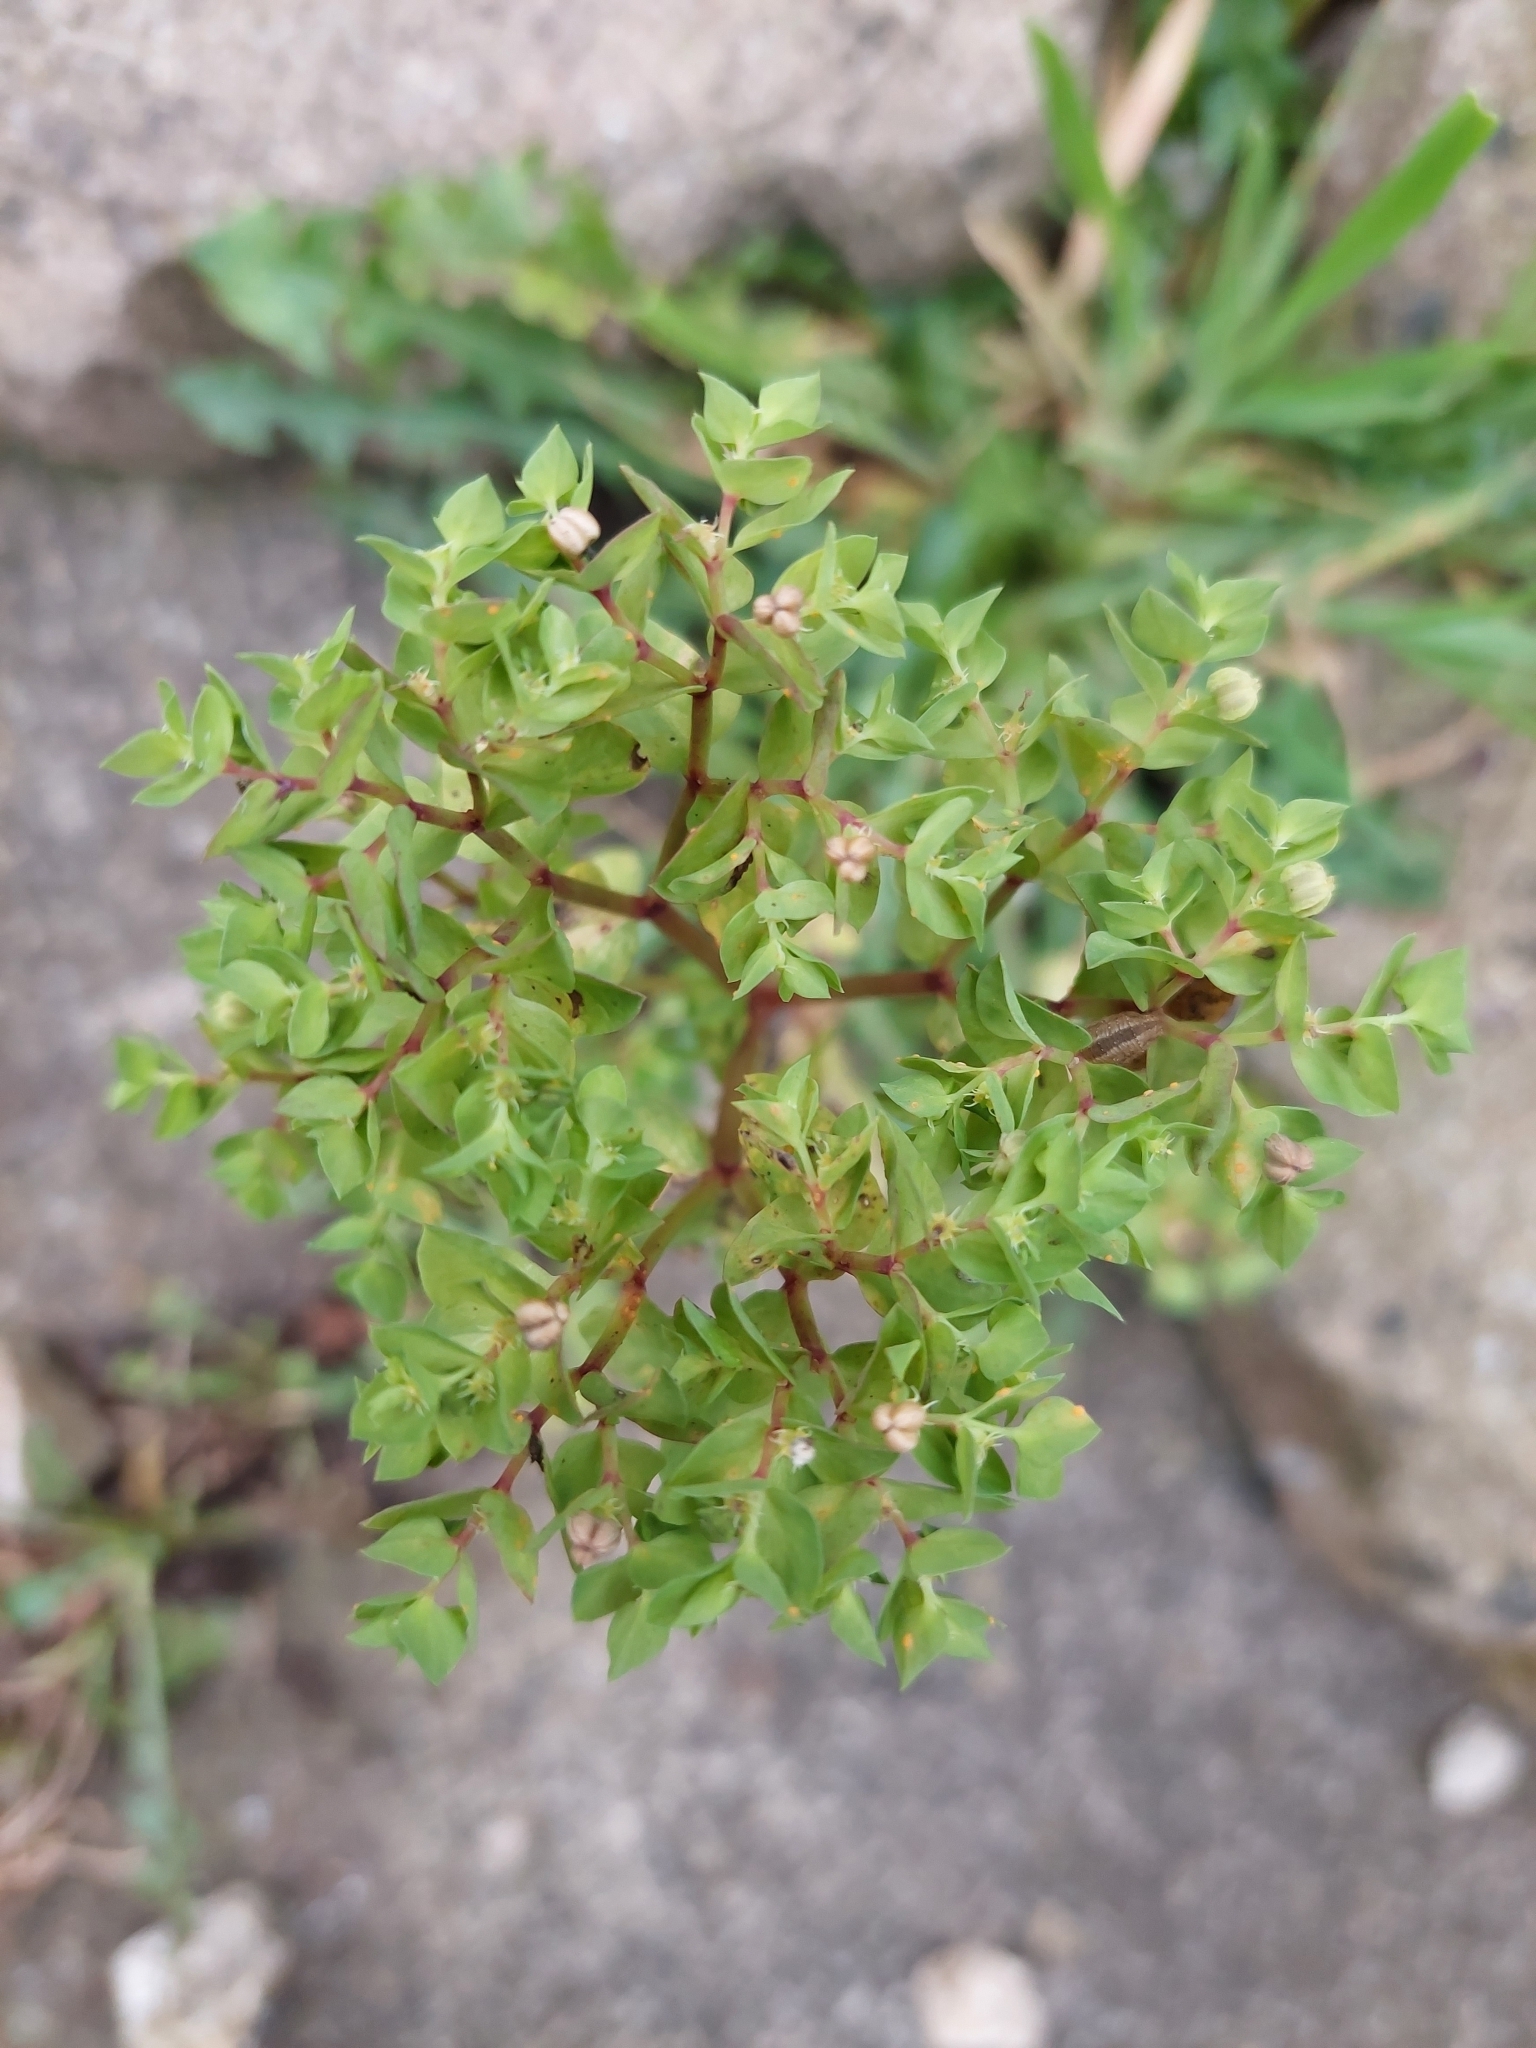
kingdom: Plantae
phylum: Tracheophyta
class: Magnoliopsida
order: Malpighiales
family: Euphorbiaceae
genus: Euphorbia
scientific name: Euphorbia peplus
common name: Petty spurge
